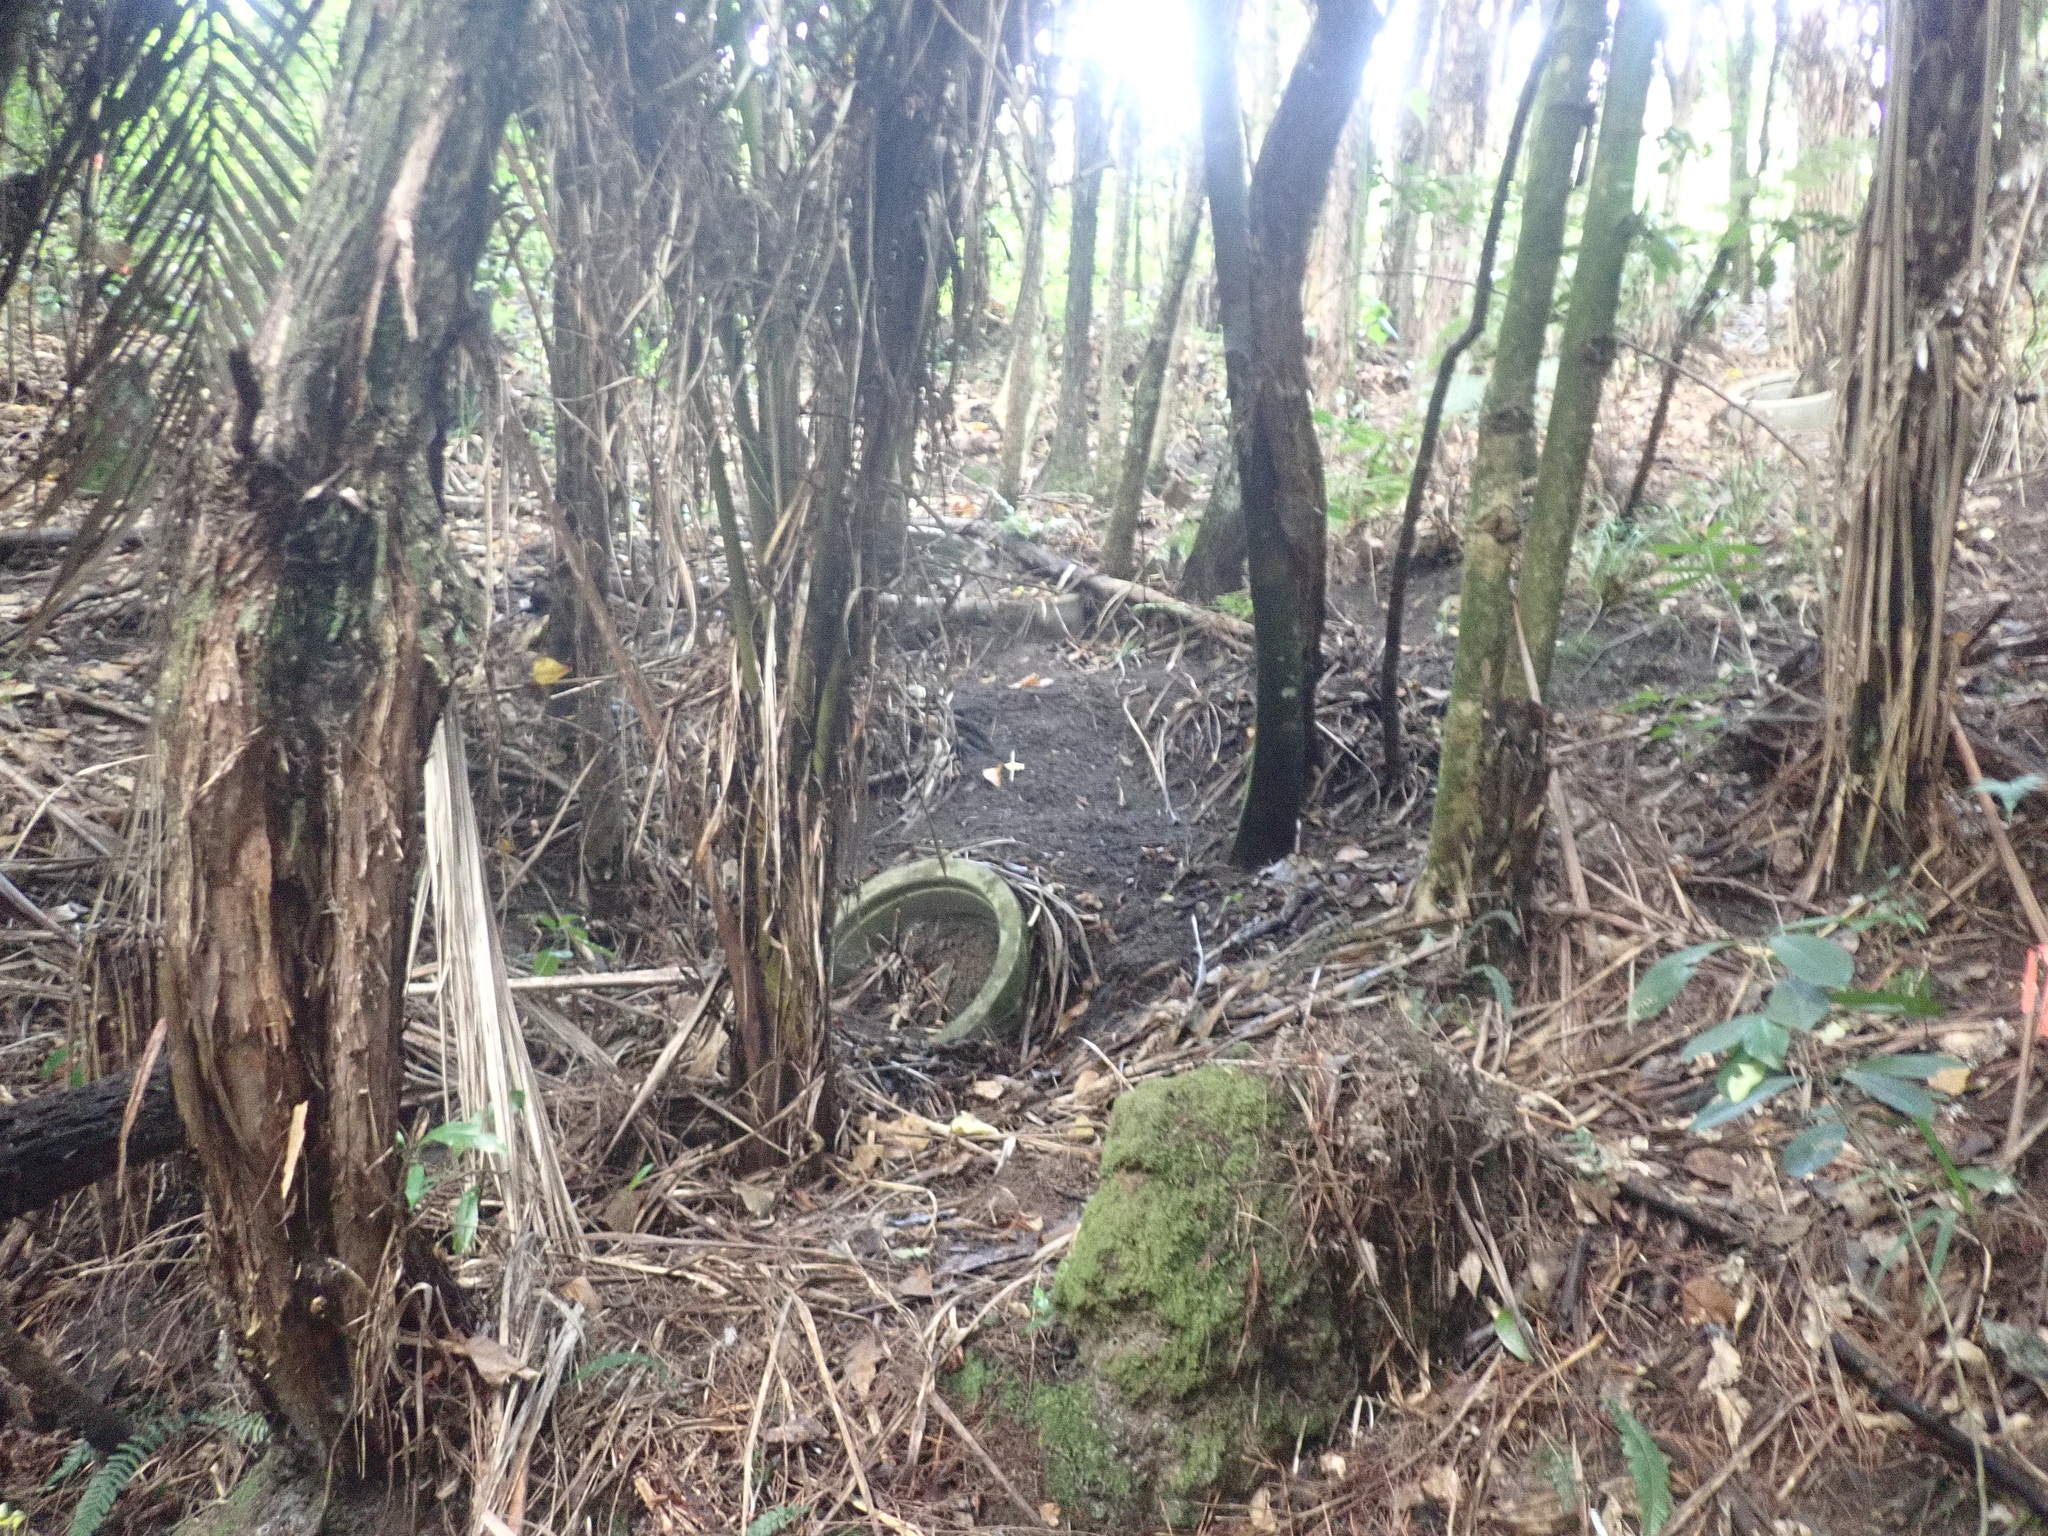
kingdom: Plantae
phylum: Tracheophyta
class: Liliopsida
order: Arecales
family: Arecaceae
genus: Rhopalostylis
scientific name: Rhopalostylis sapida
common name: Feather-duster palm
